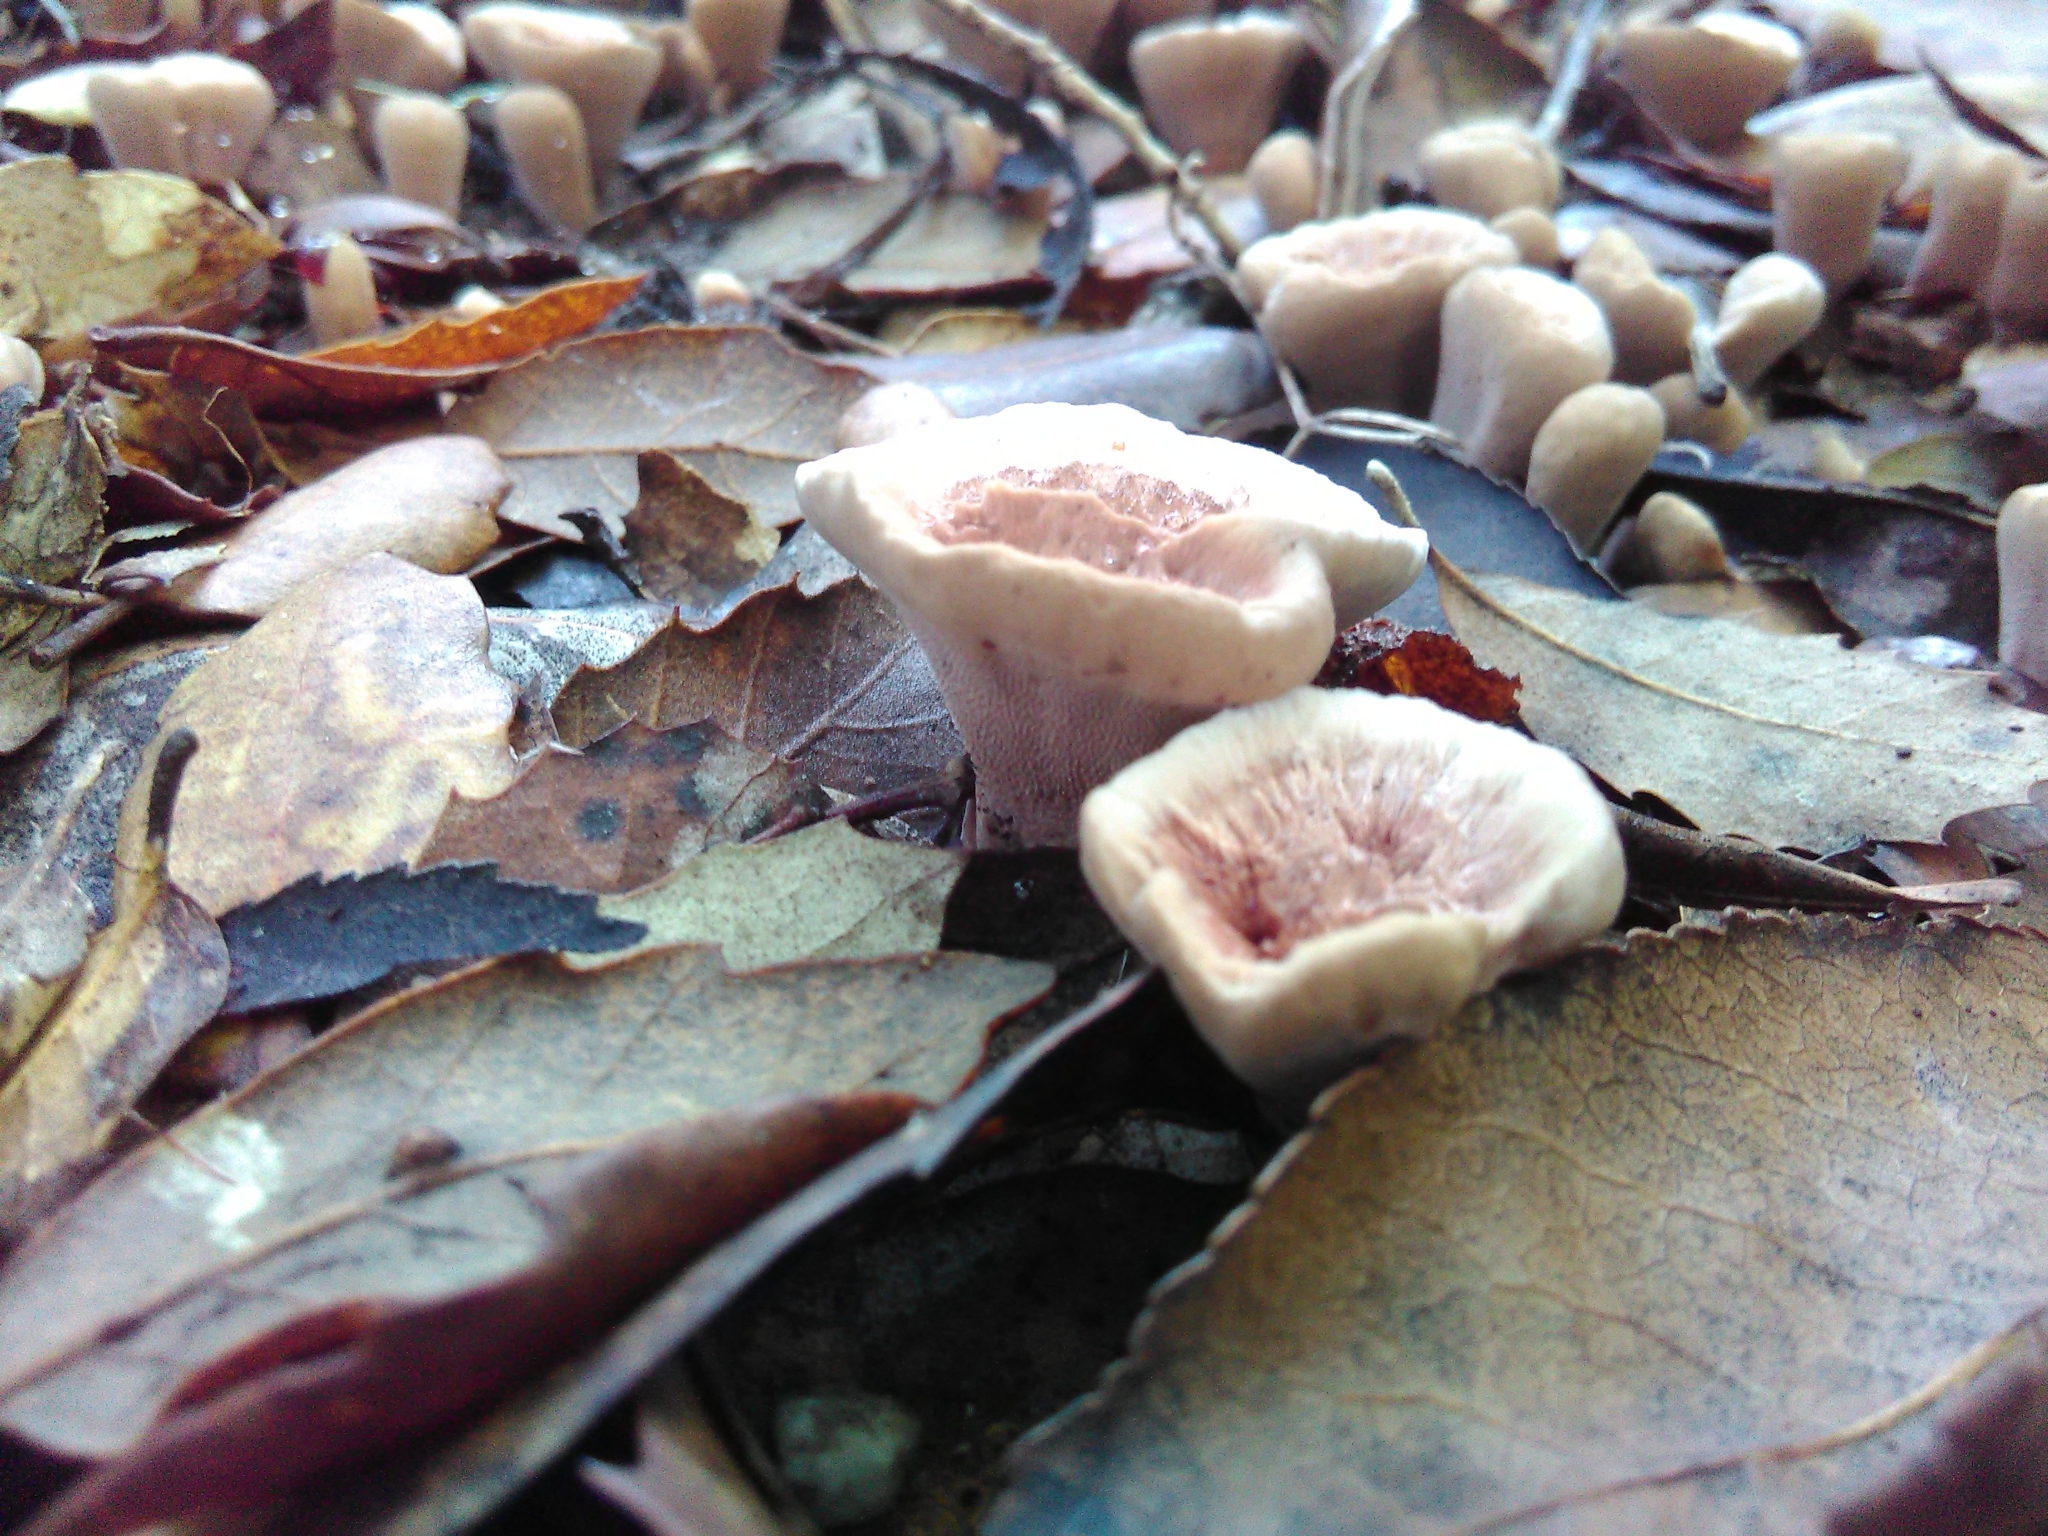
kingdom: Fungi
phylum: Basidiomycota
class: Agaricomycetes
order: Thelephorales
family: Bankeraceae
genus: Hydnellum
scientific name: Hydnellum concrescens
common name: Zoned tooth
